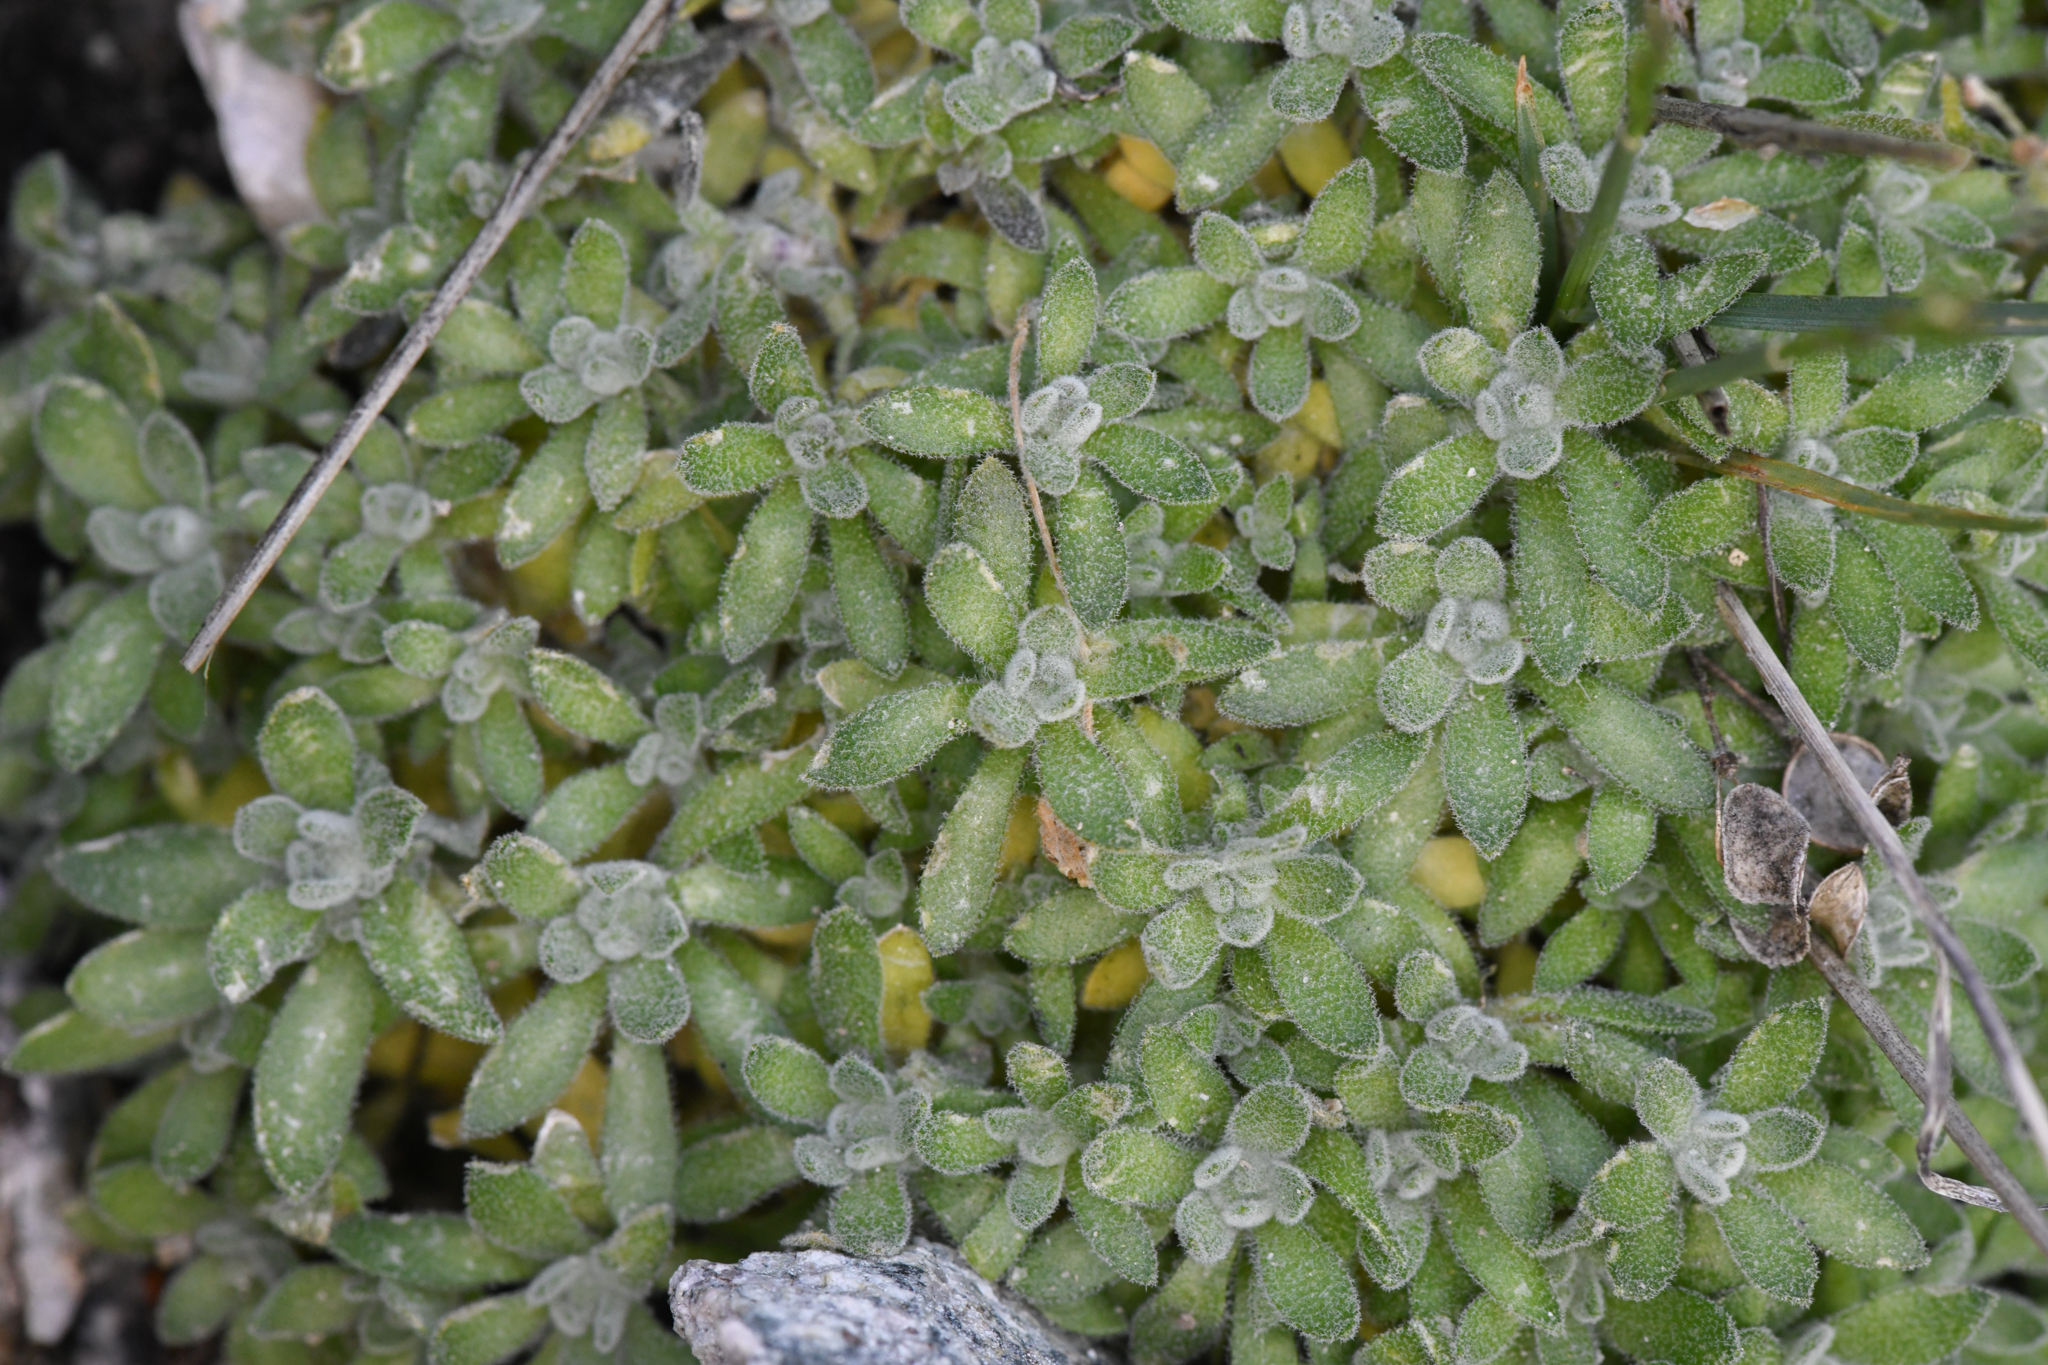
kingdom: Plantae
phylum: Tracheophyta
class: Magnoliopsida
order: Brassicales
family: Brassicaceae
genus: Draba
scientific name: Draba sierrae
